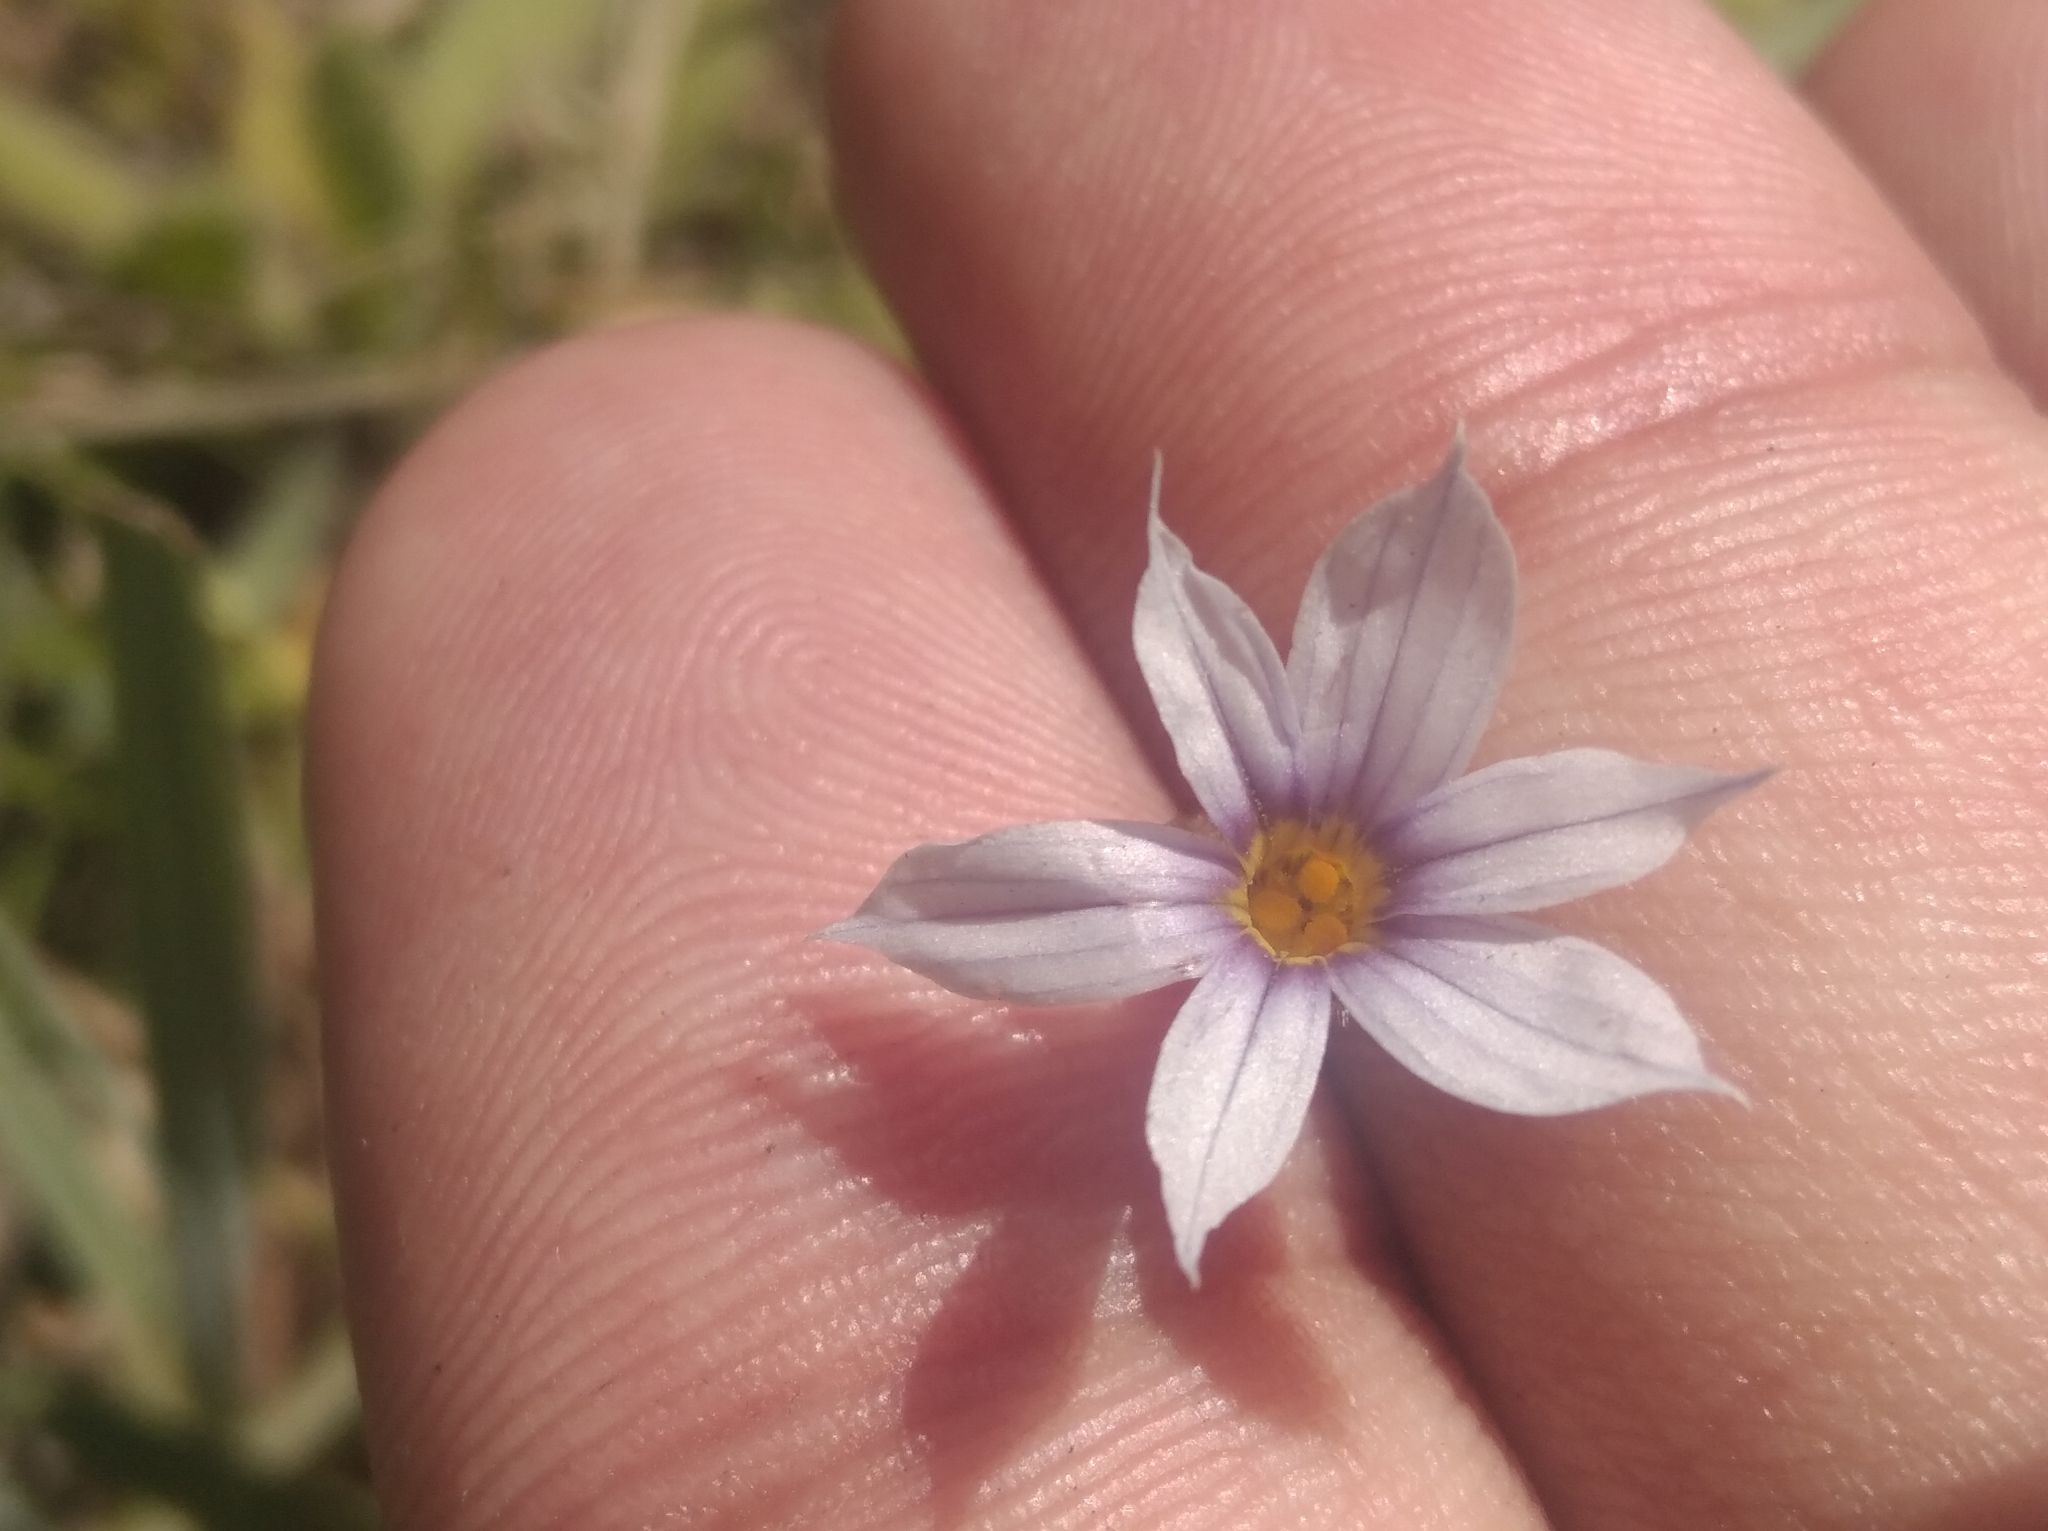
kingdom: Plantae
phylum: Tracheophyta
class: Liliopsida
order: Asparagales
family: Iridaceae
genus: Sisyrinchium
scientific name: Sisyrinchium micranthum
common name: Bermuda pigroot
